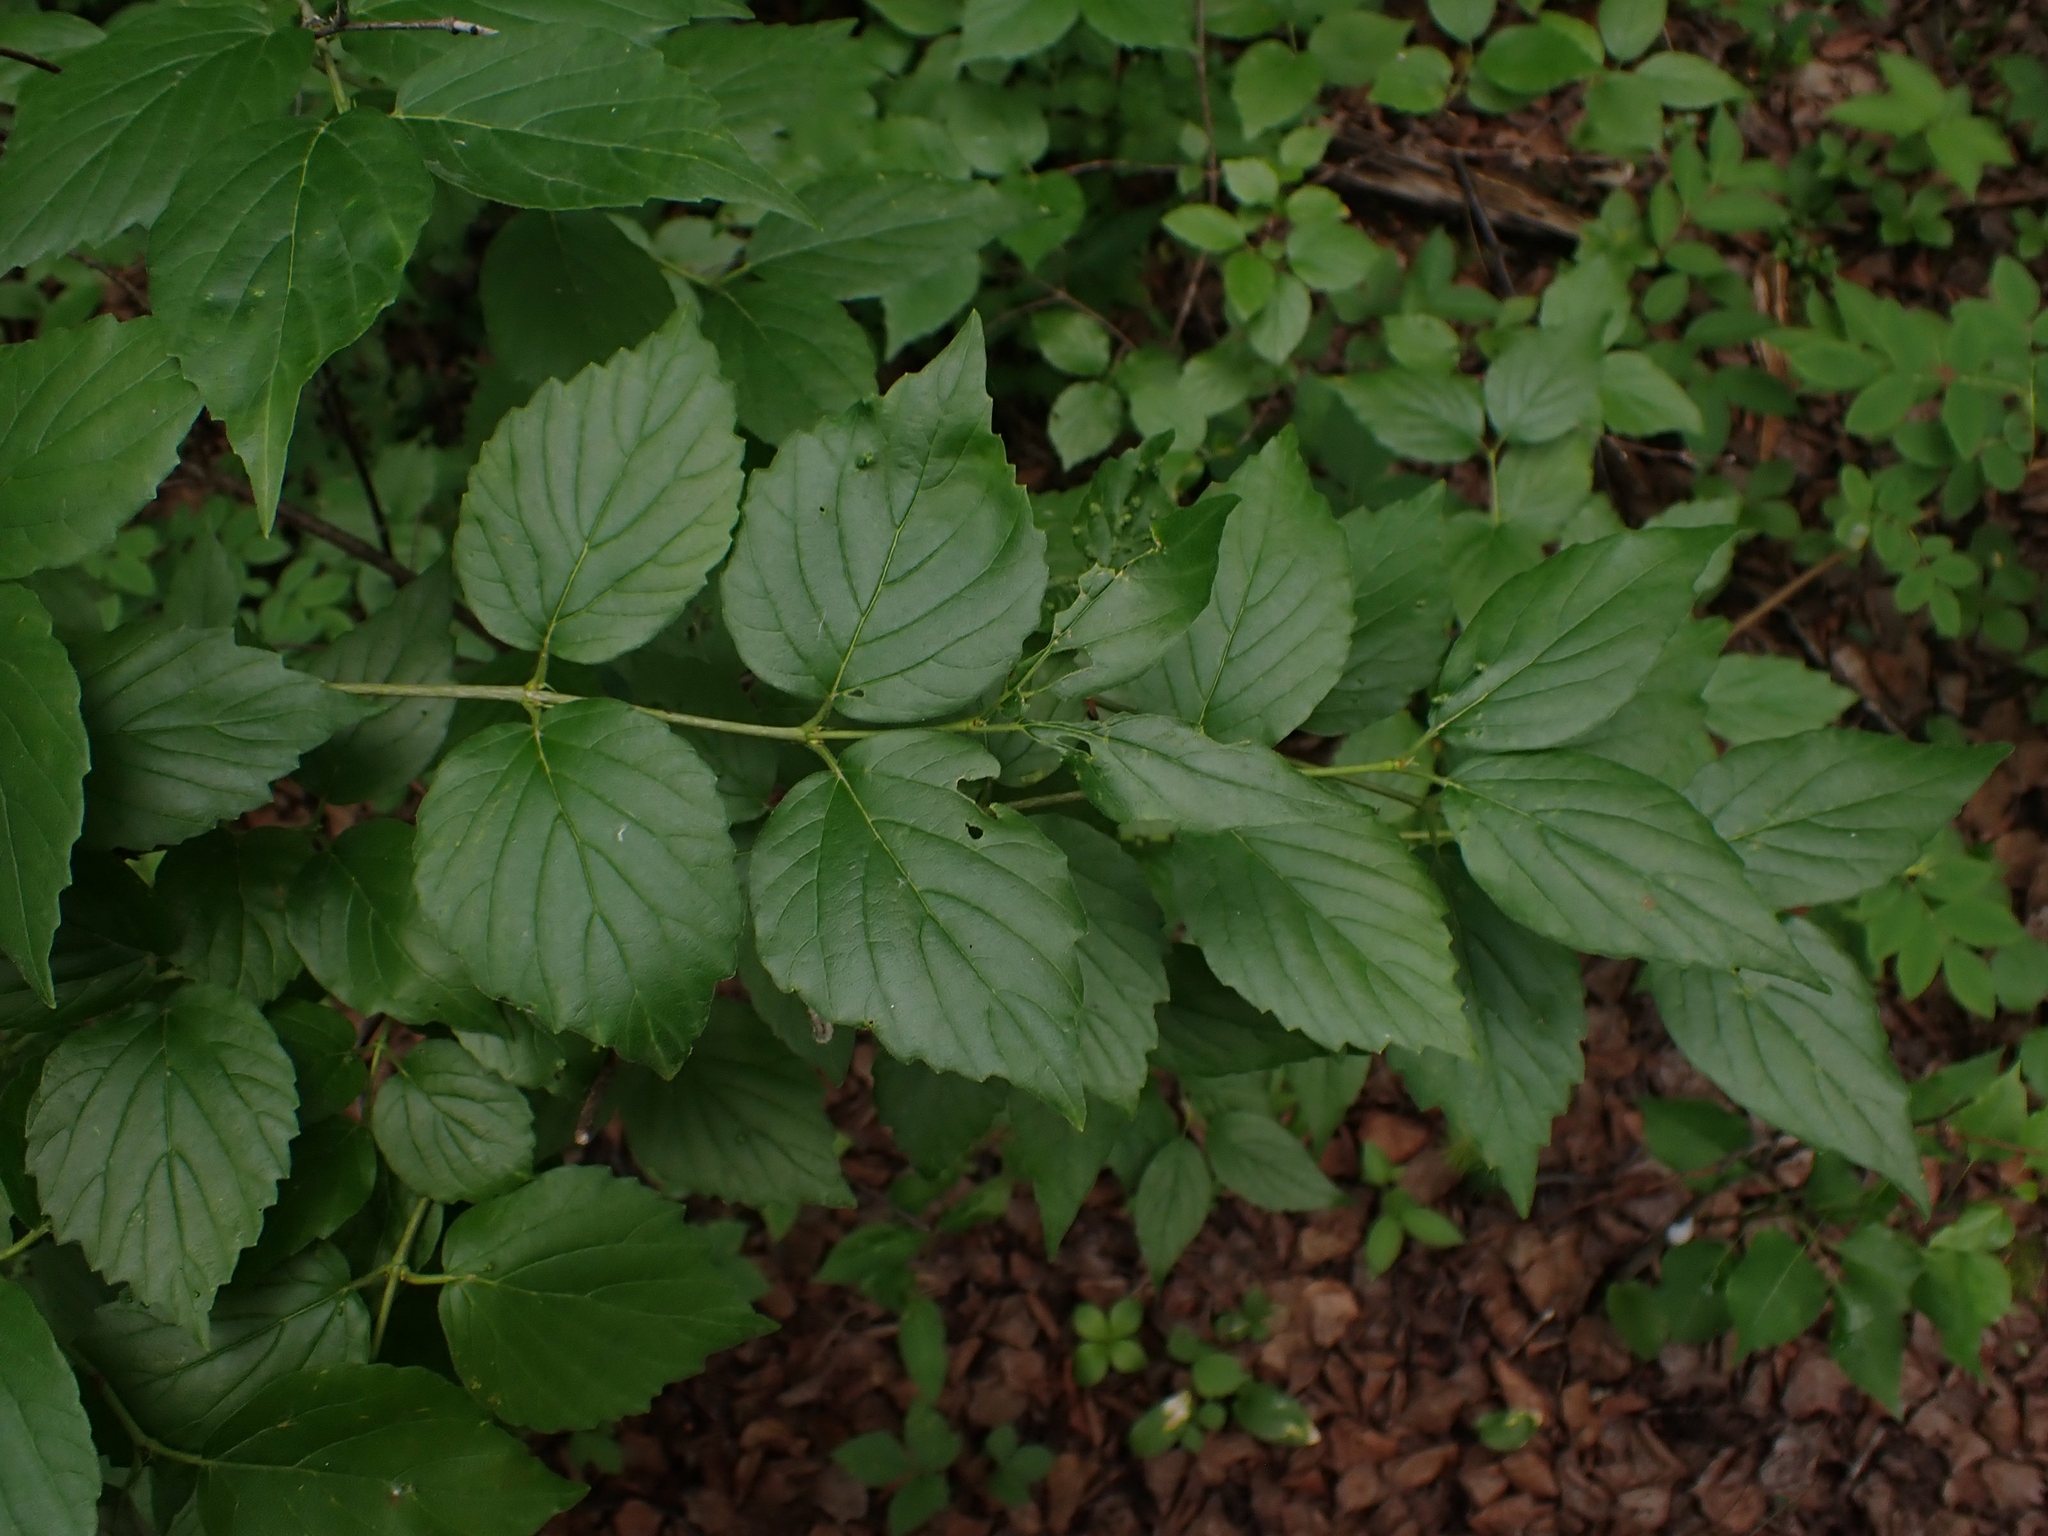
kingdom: Plantae
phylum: Tracheophyta
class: Magnoliopsida
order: Dipsacales
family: Viburnaceae
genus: Viburnum
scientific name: Viburnum rafinesqueanum
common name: Downy arrow-wood
